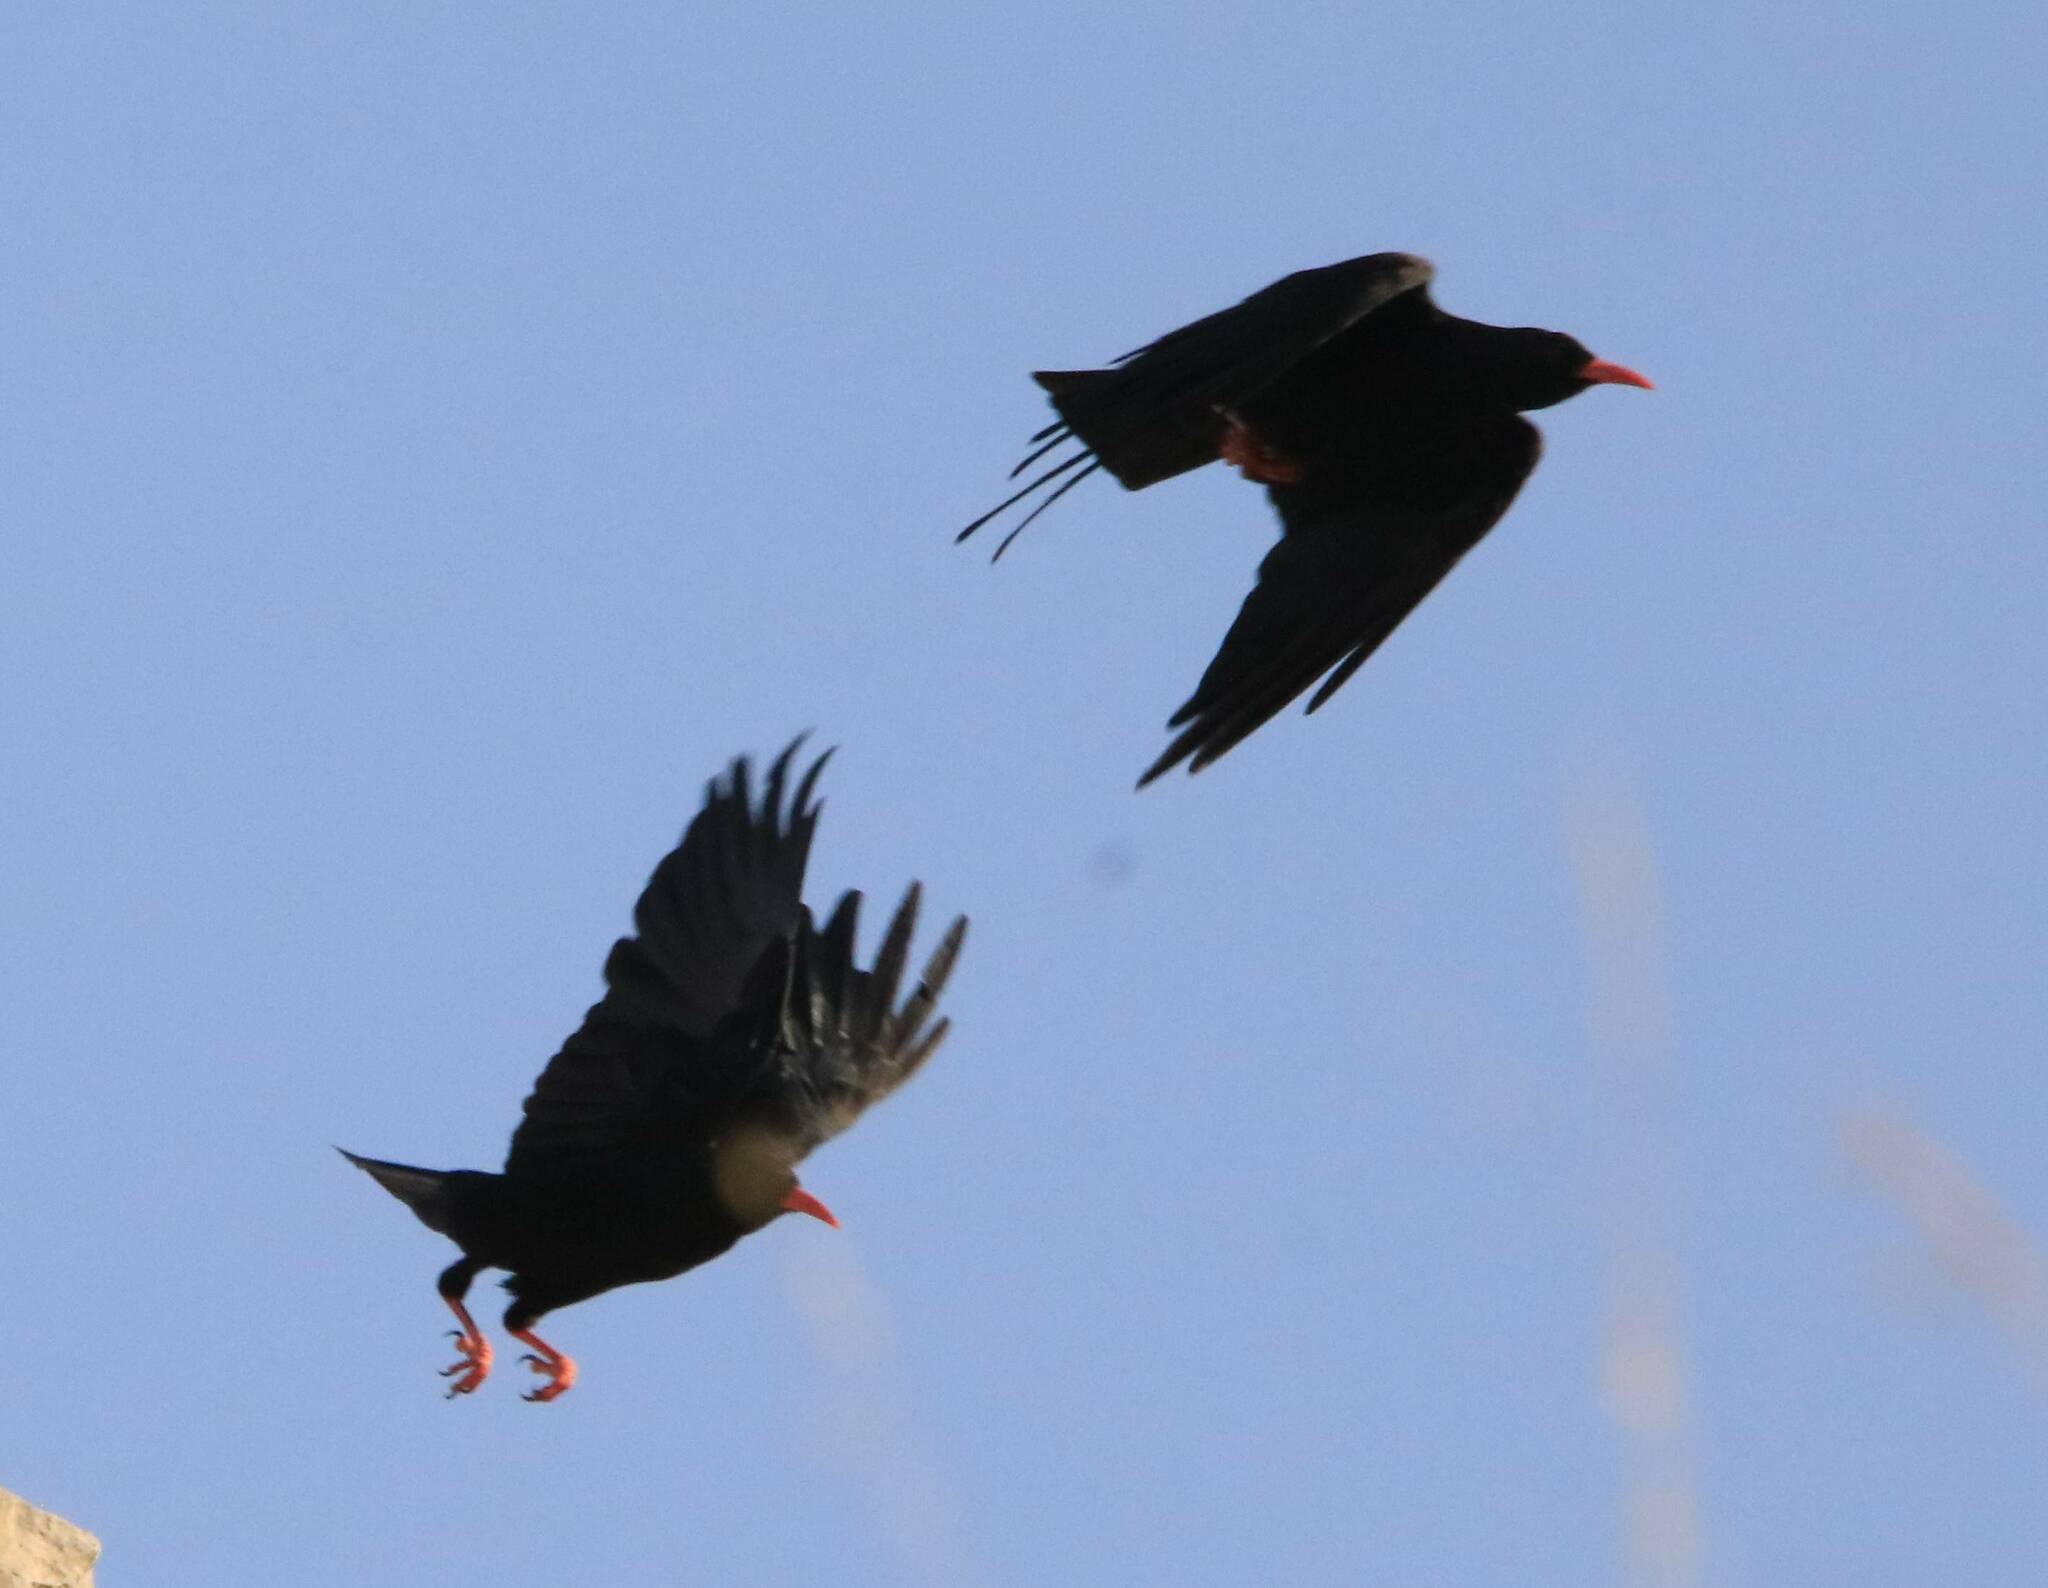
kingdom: Animalia
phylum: Chordata
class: Aves
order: Passeriformes
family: Corvidae
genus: Pyrrhocorax
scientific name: Pyrrhocorax pyrrhocorax
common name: Red-billed chough
